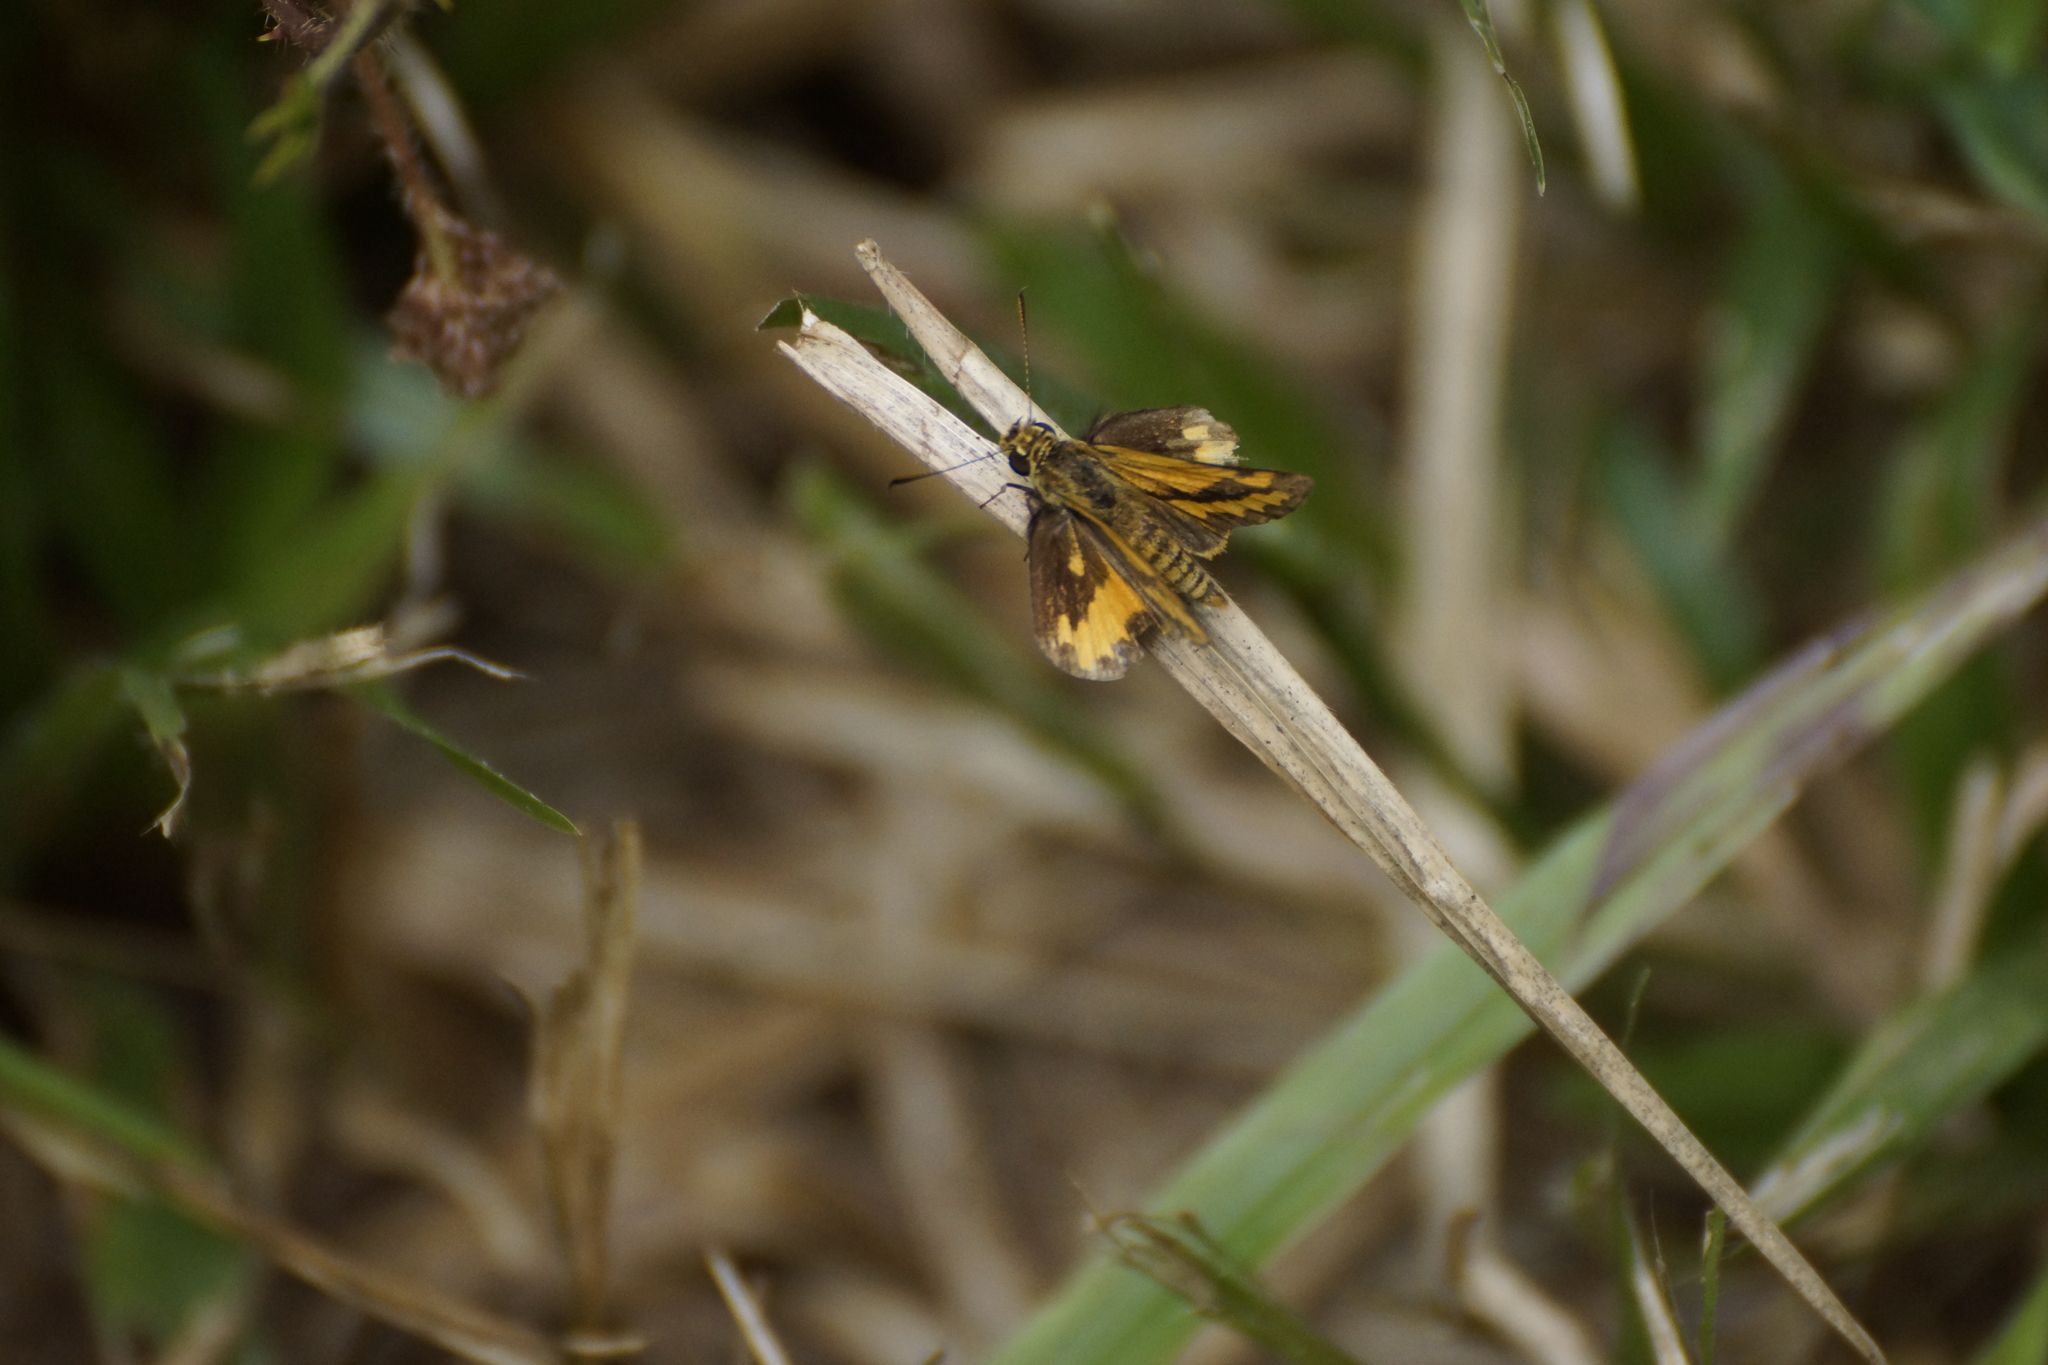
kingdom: Animalia
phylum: Arthropoda
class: Insecta
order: Lepidoptera
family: Hesperiidae
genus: Suniana
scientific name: Suniana sunias
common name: Wide-brand grass-dart
